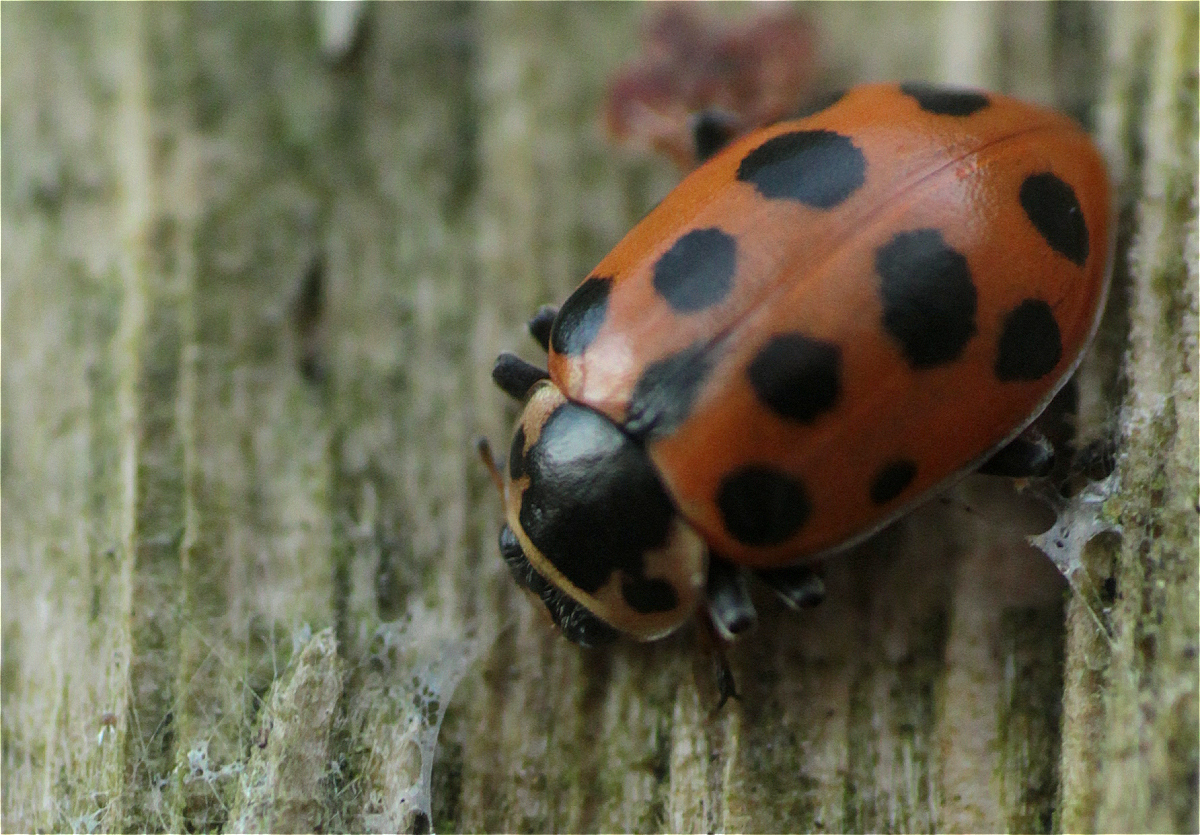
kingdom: Animalia
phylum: Arthropoda
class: Insecta
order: Coleoptera
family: Coccinellidae
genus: Hippodamia
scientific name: Hippodamia tredecimpunctata
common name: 13-spot ladybird
